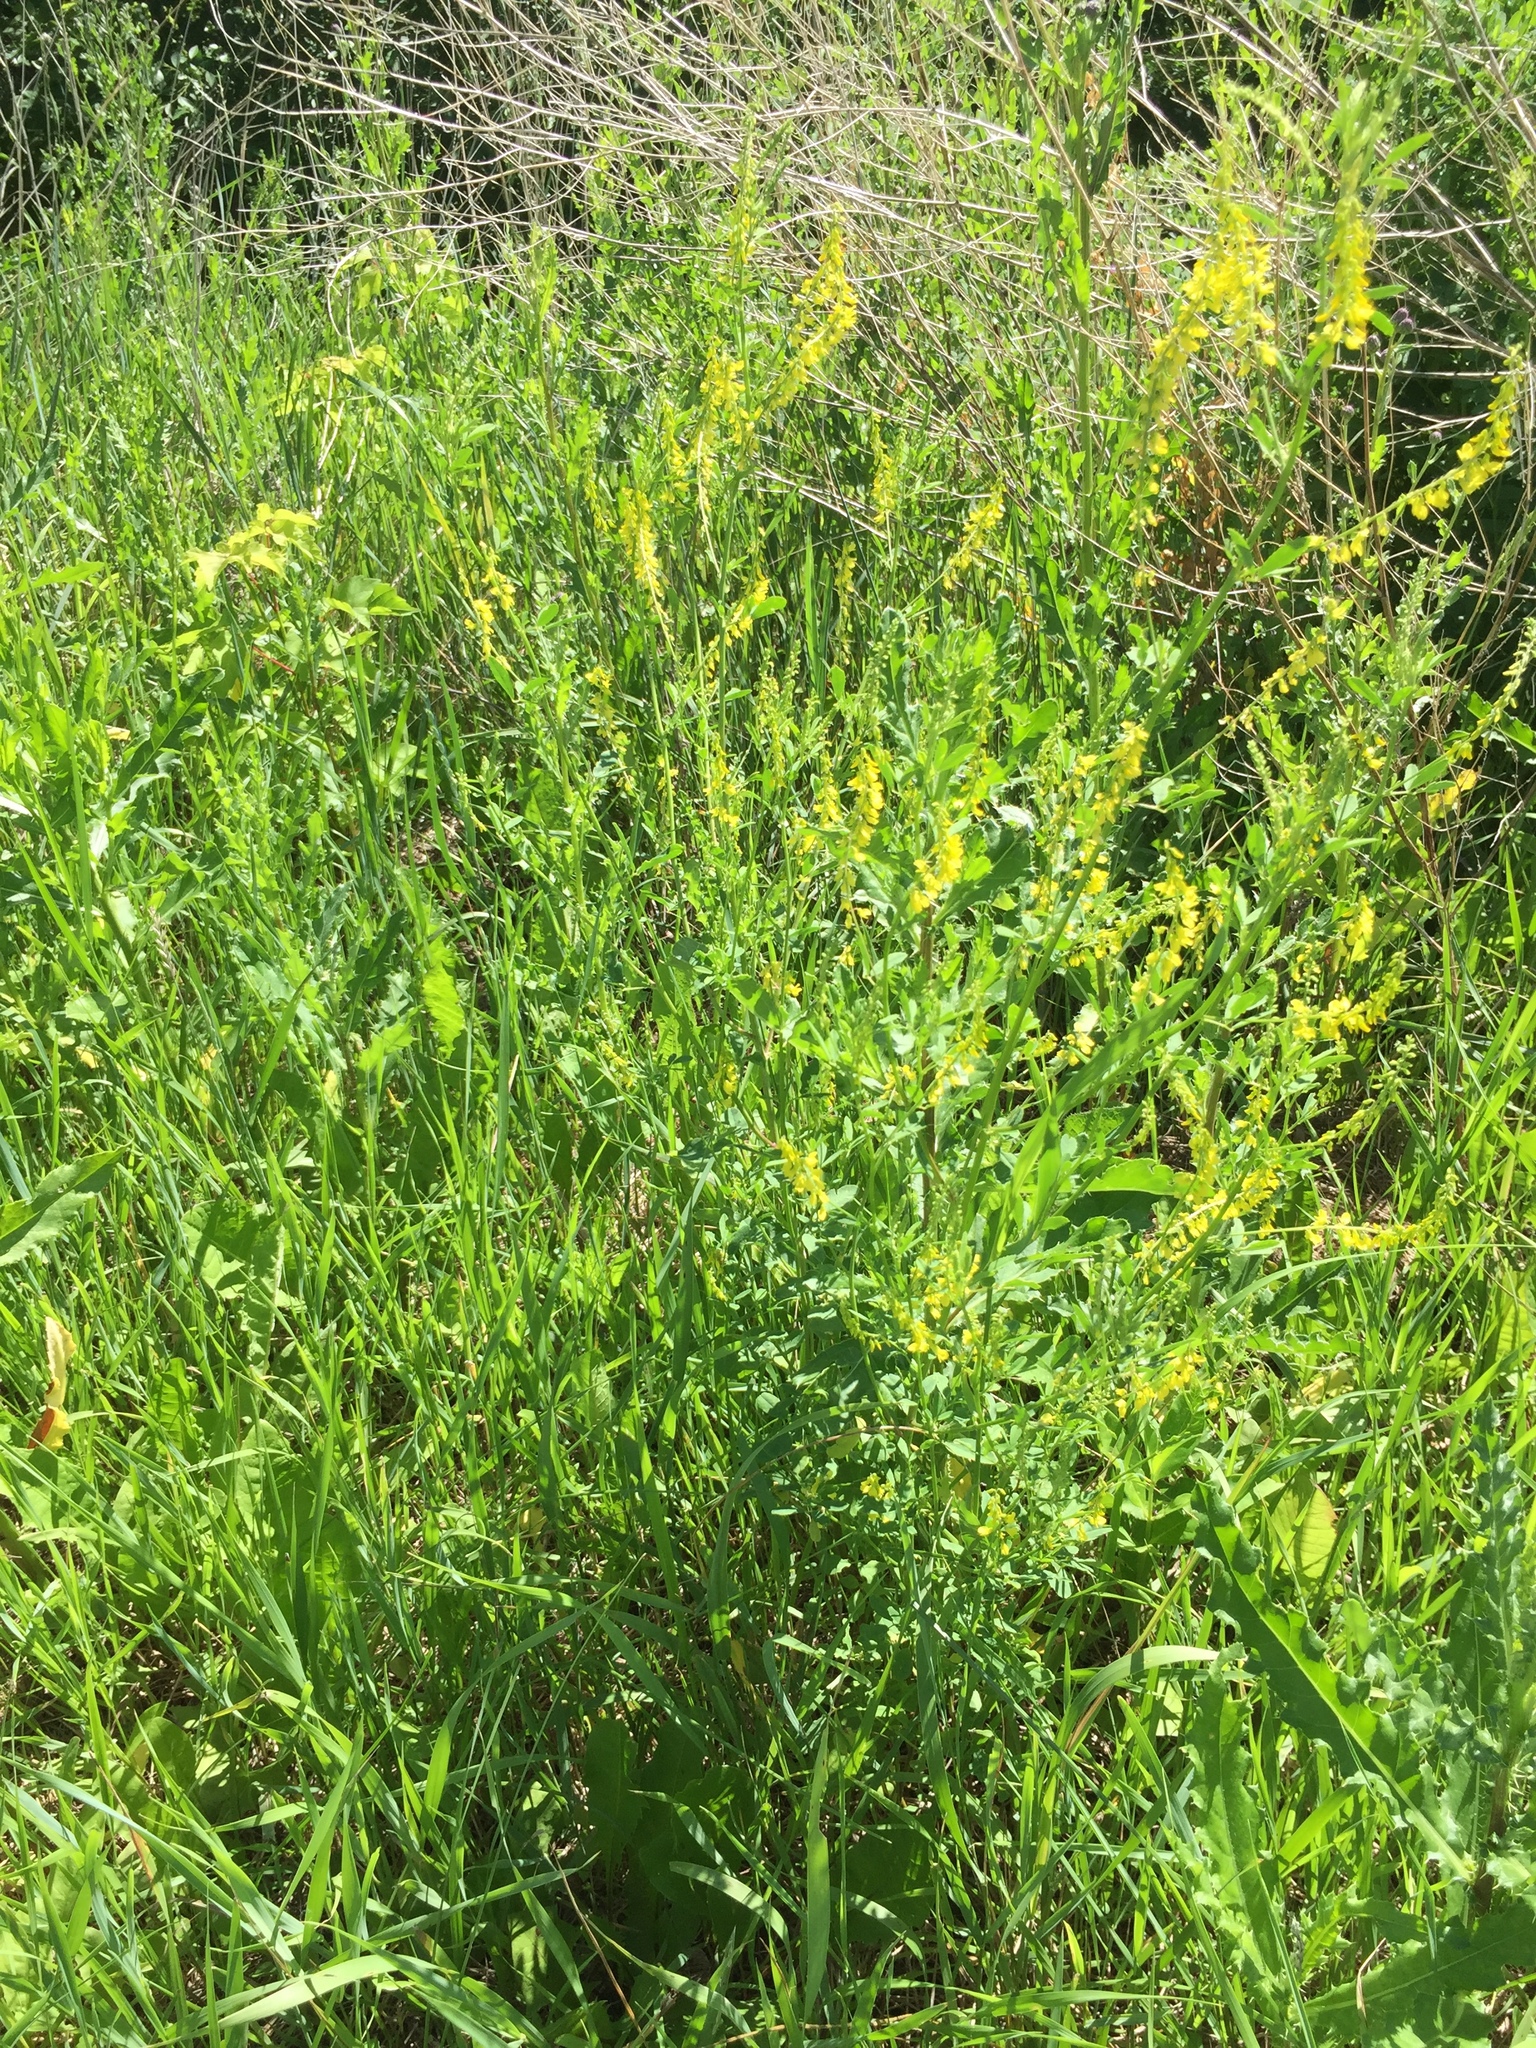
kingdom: Plantae
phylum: Tracheophyta
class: Magnoliopsida
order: Fabales
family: Fabaceae
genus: Melilotus
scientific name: Melilotus officinalis
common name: Sweetclover
